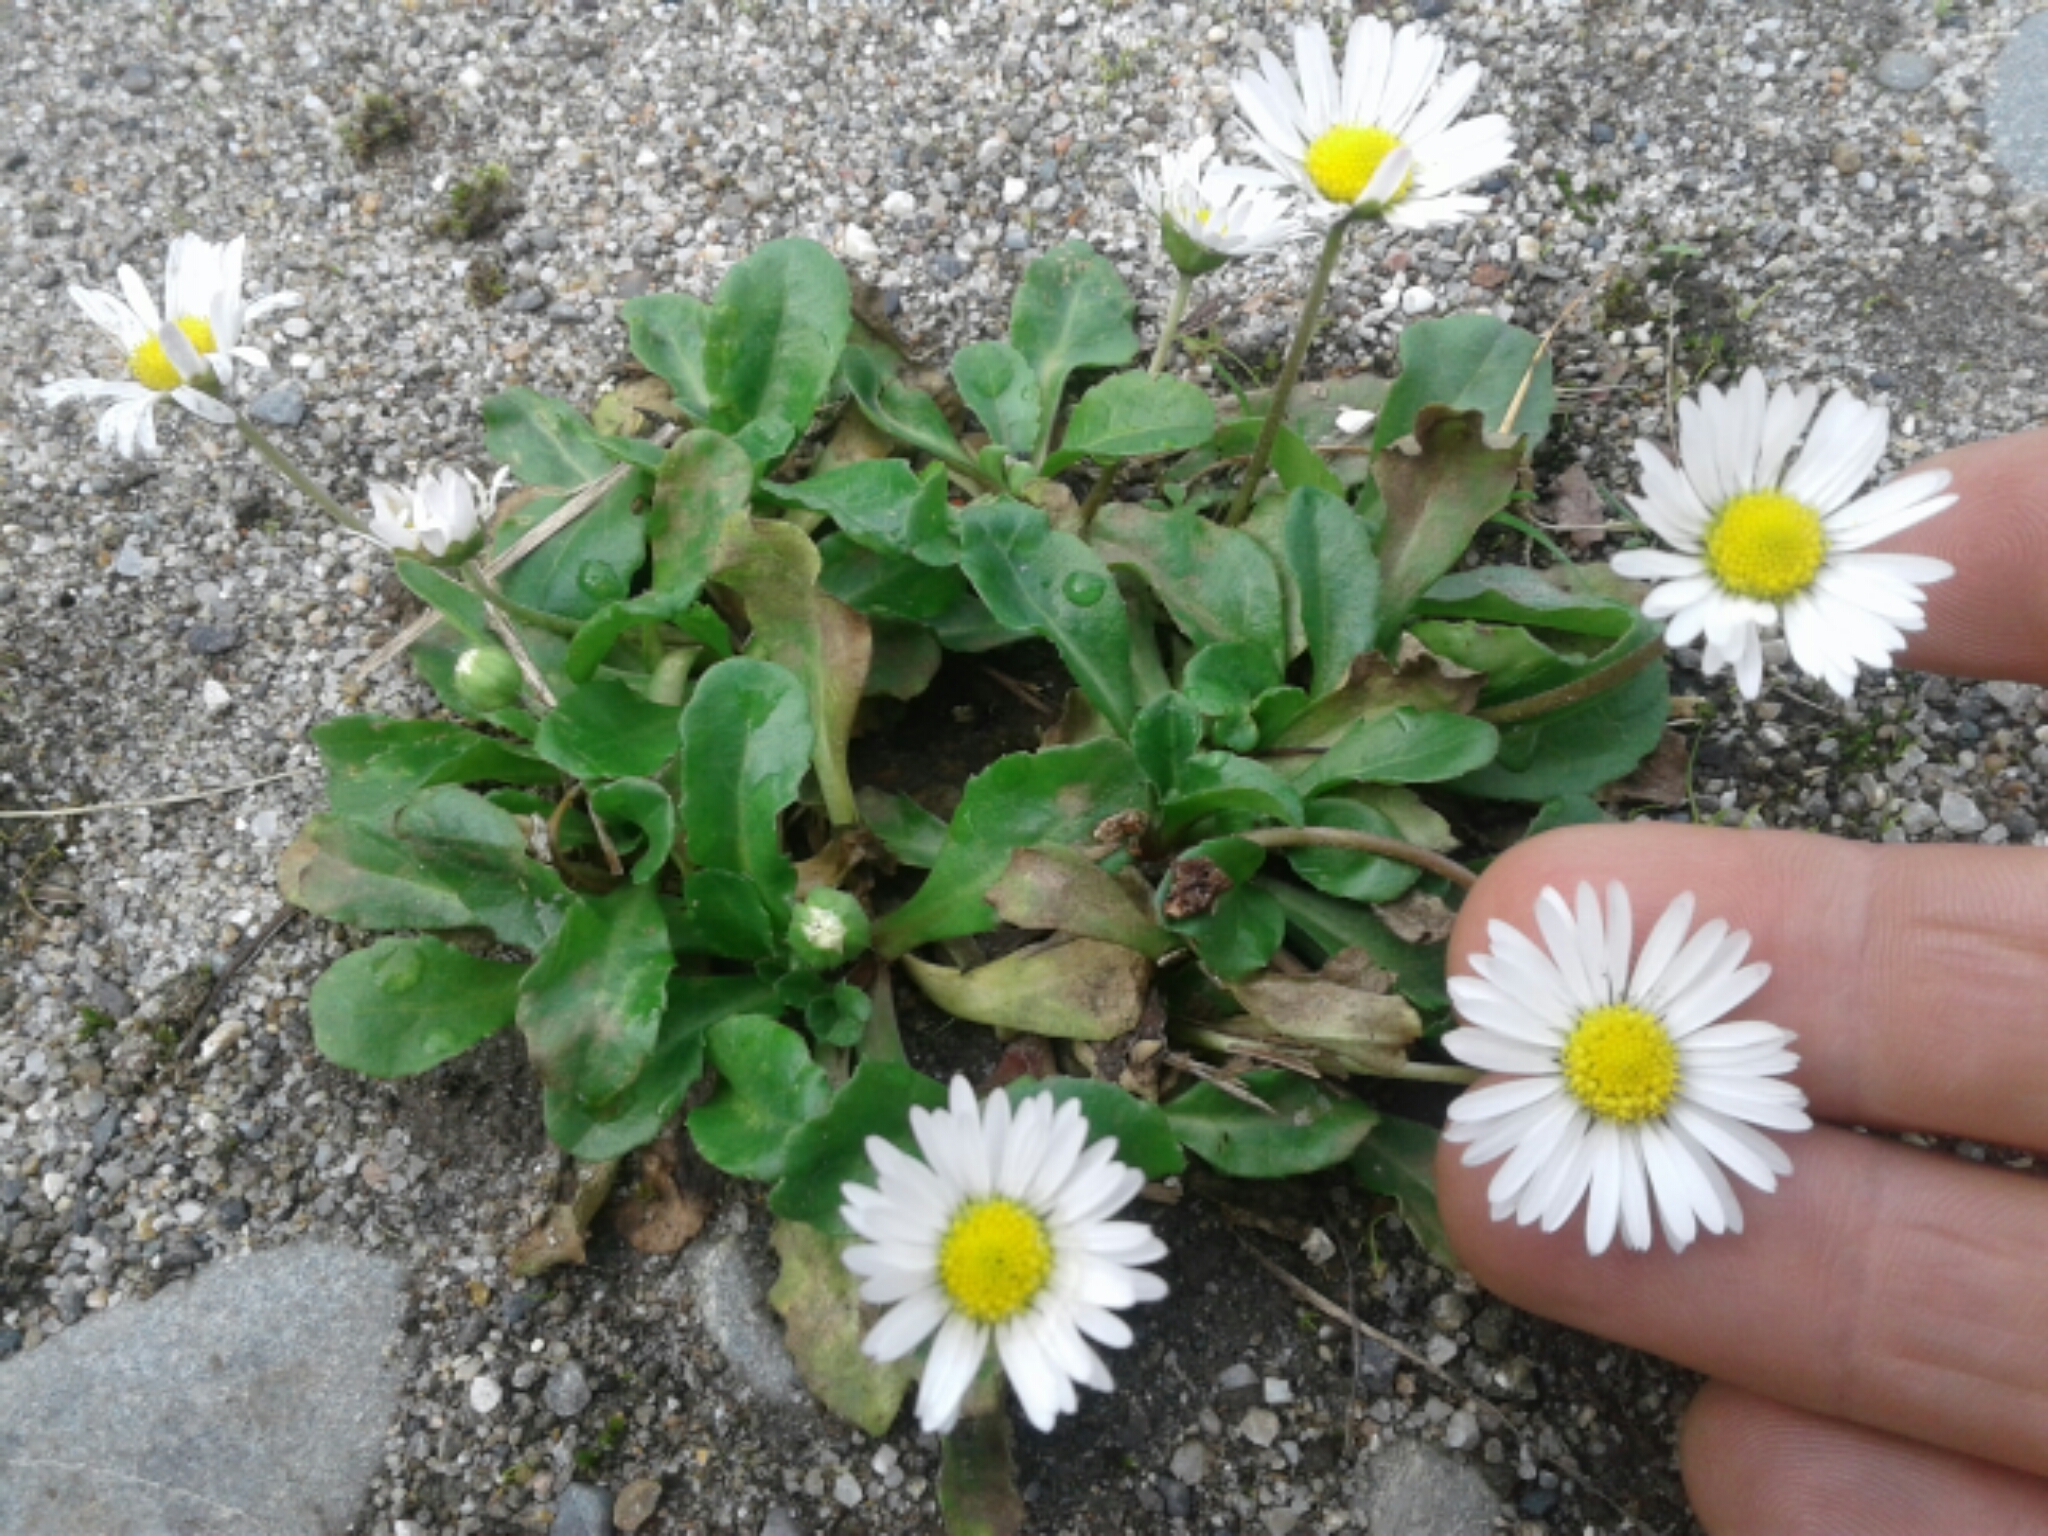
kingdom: Plantae
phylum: Tracheophyta
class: Magnoliopsida
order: Asterales
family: Asteraceae
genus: Bellis
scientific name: Bellis perennis
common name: Lawndaisy
